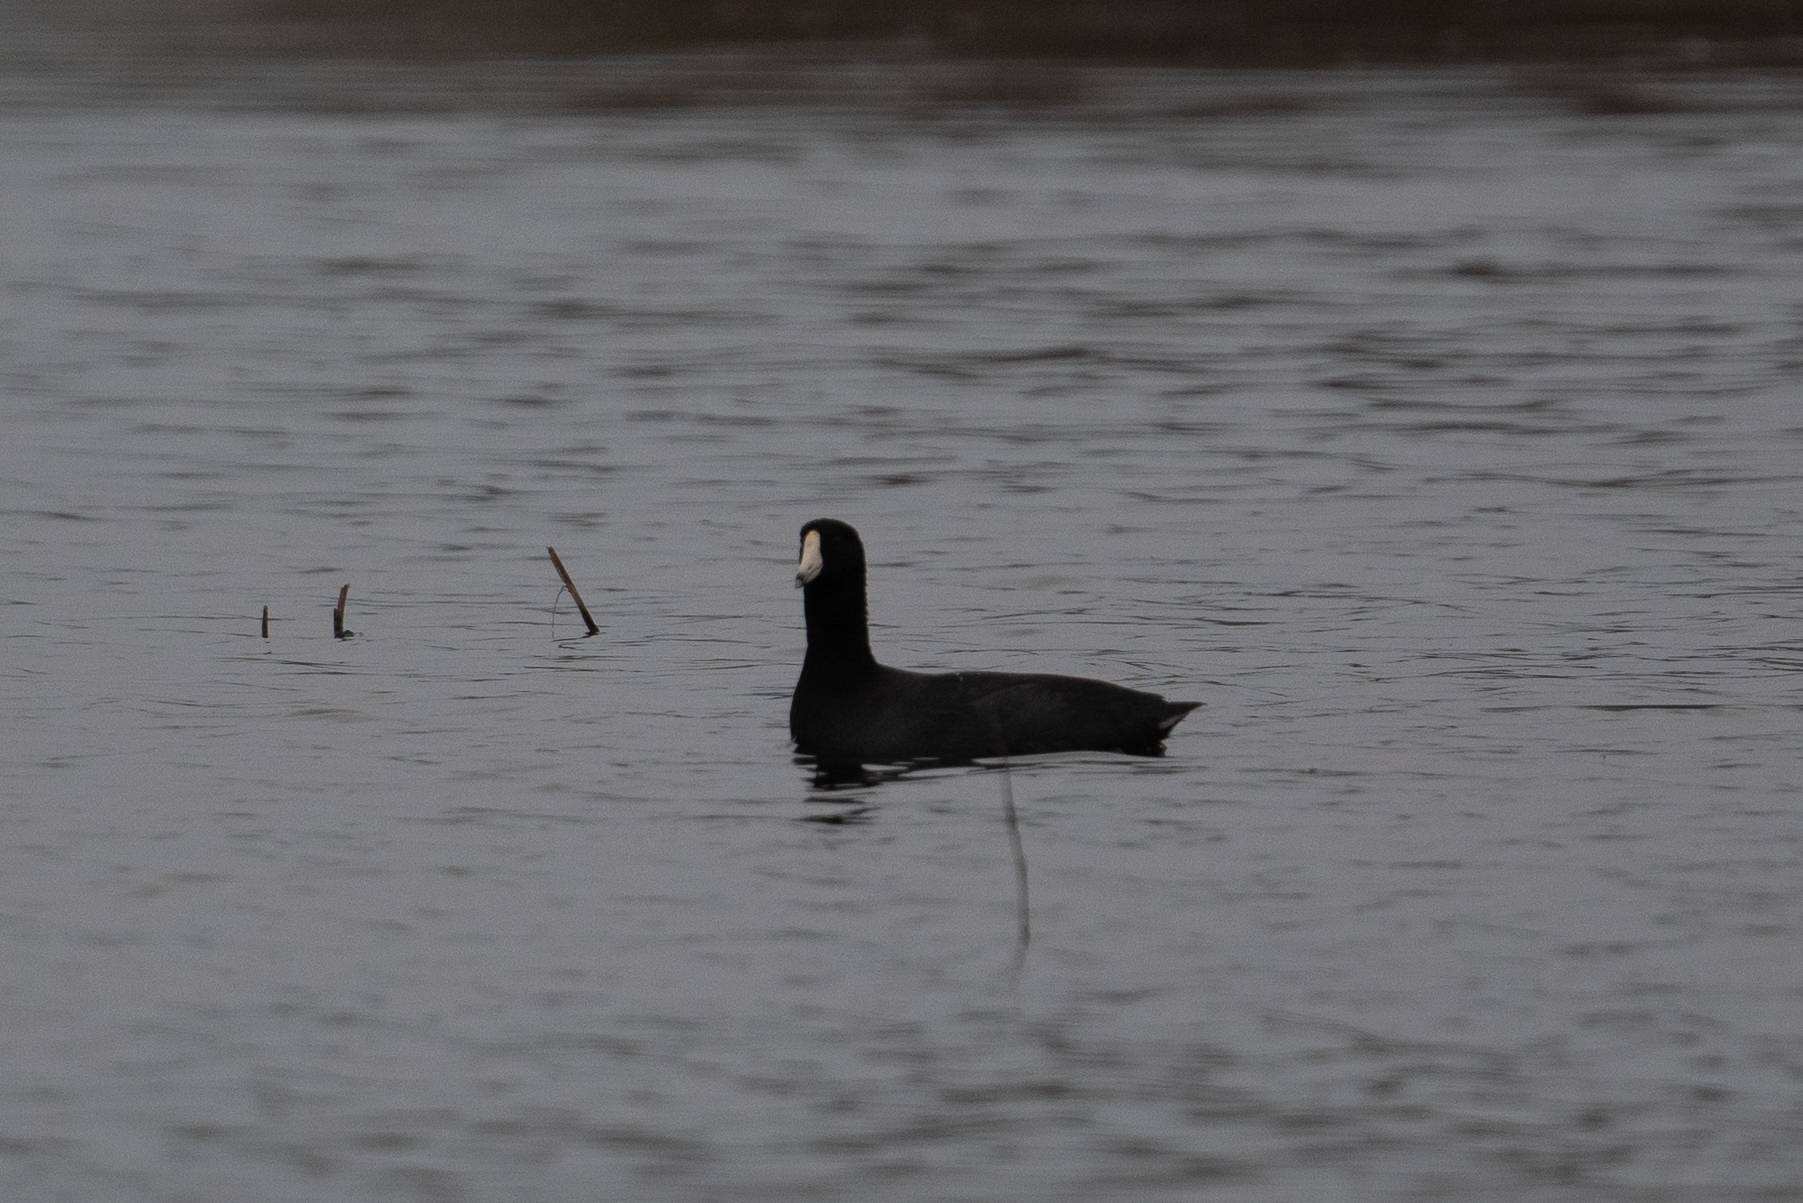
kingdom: Animalia
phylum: Chordata
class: Aves
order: Gruiformes
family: Rallidae
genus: Fulica
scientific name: Fulica americana
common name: American coot
